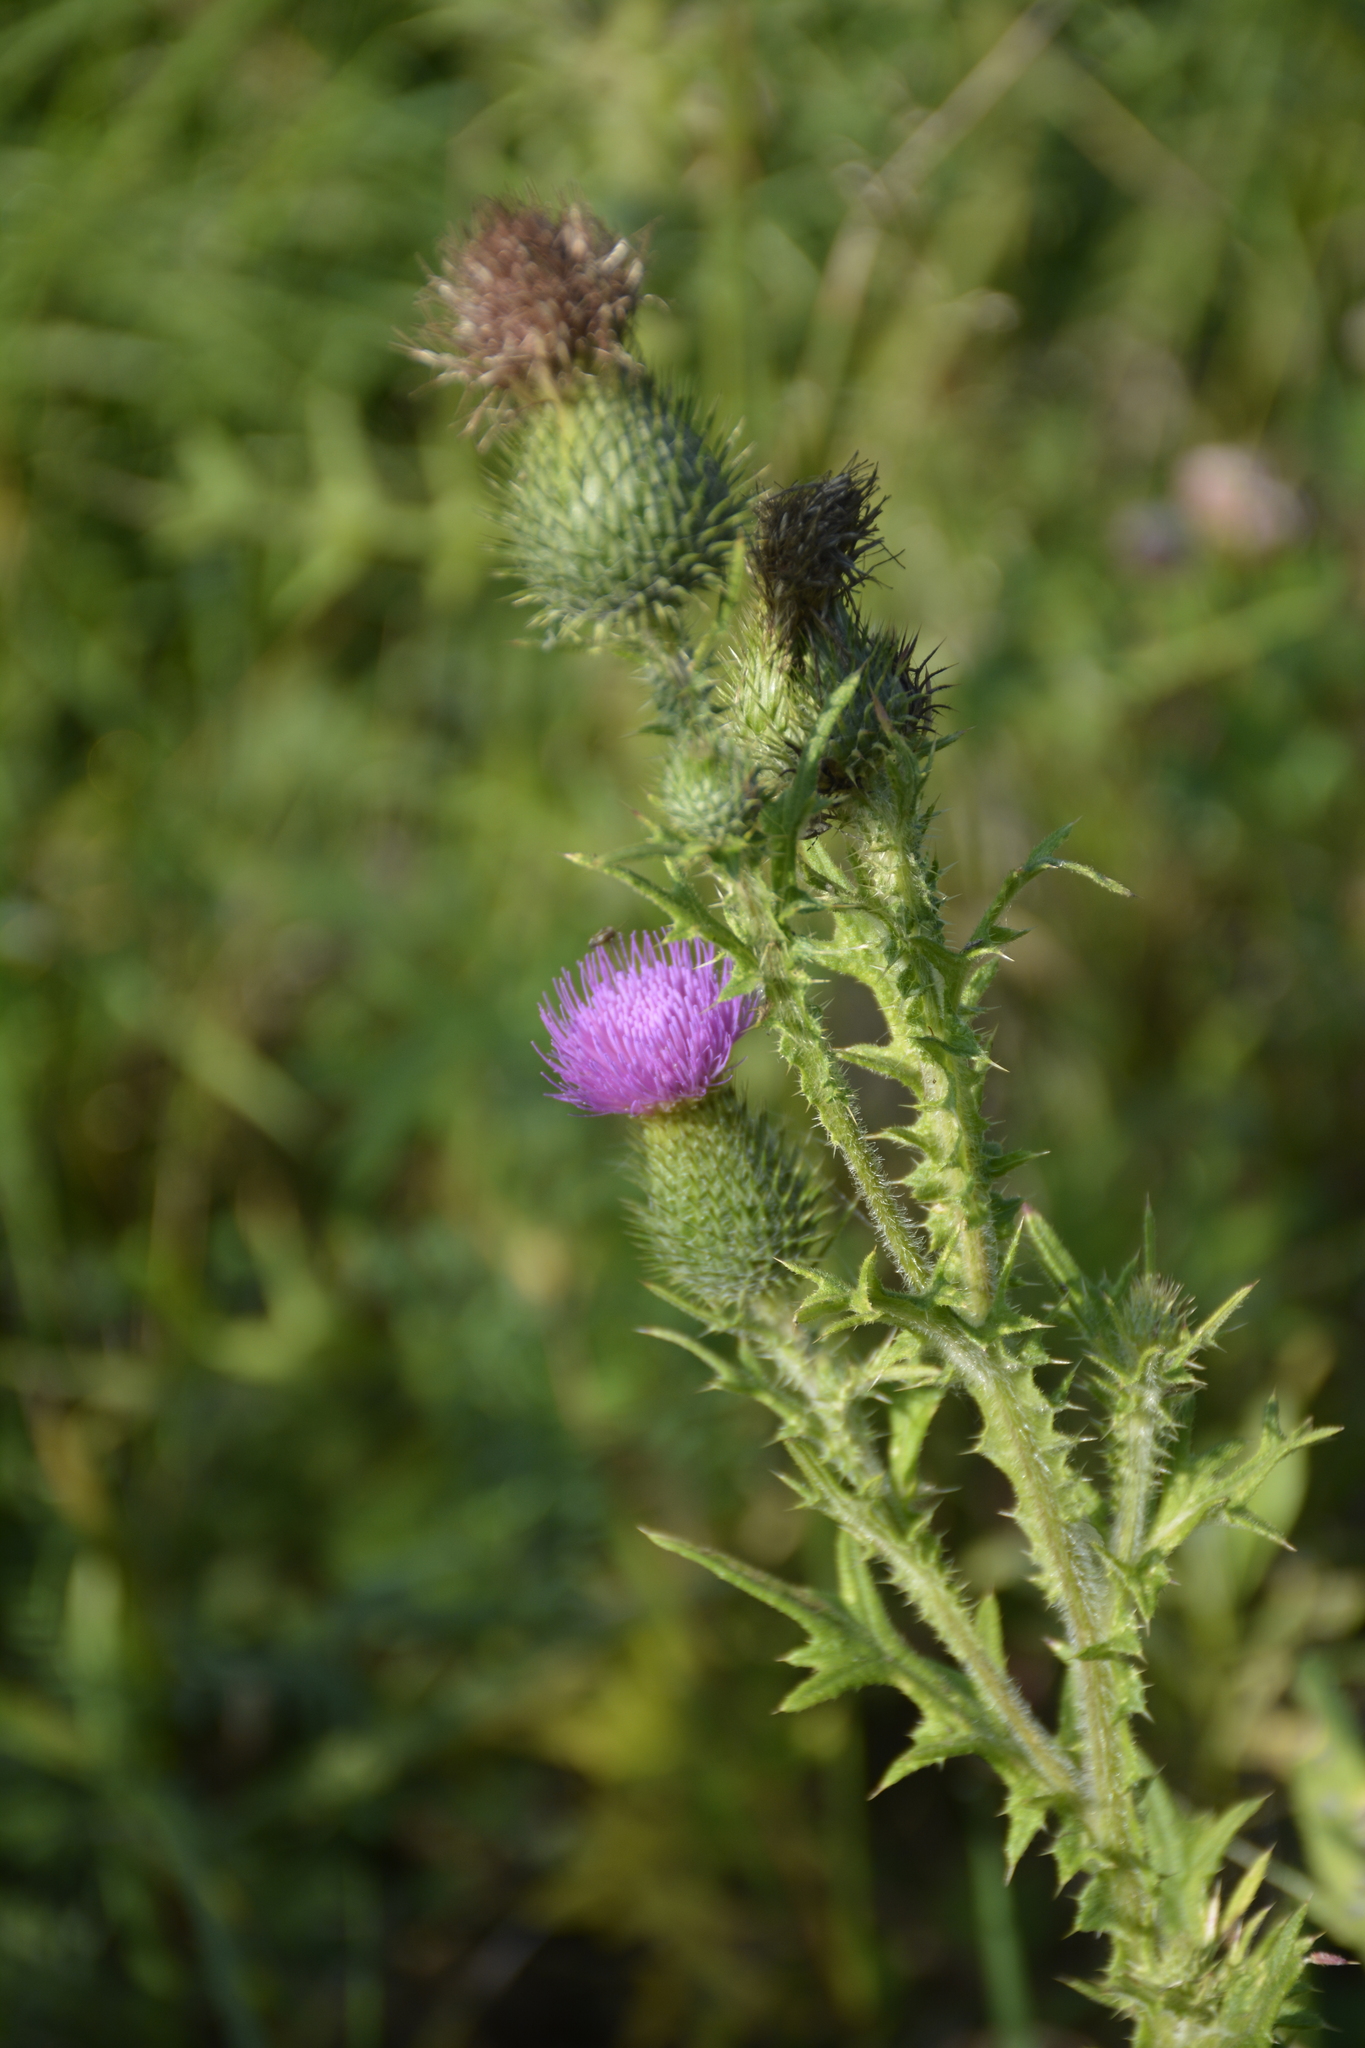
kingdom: Plantae
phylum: Tracheophyta
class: Magnoliopsida
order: Asterales
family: Asteraceae
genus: Cirsium
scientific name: Cirsium vulgare
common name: Bull thistle
